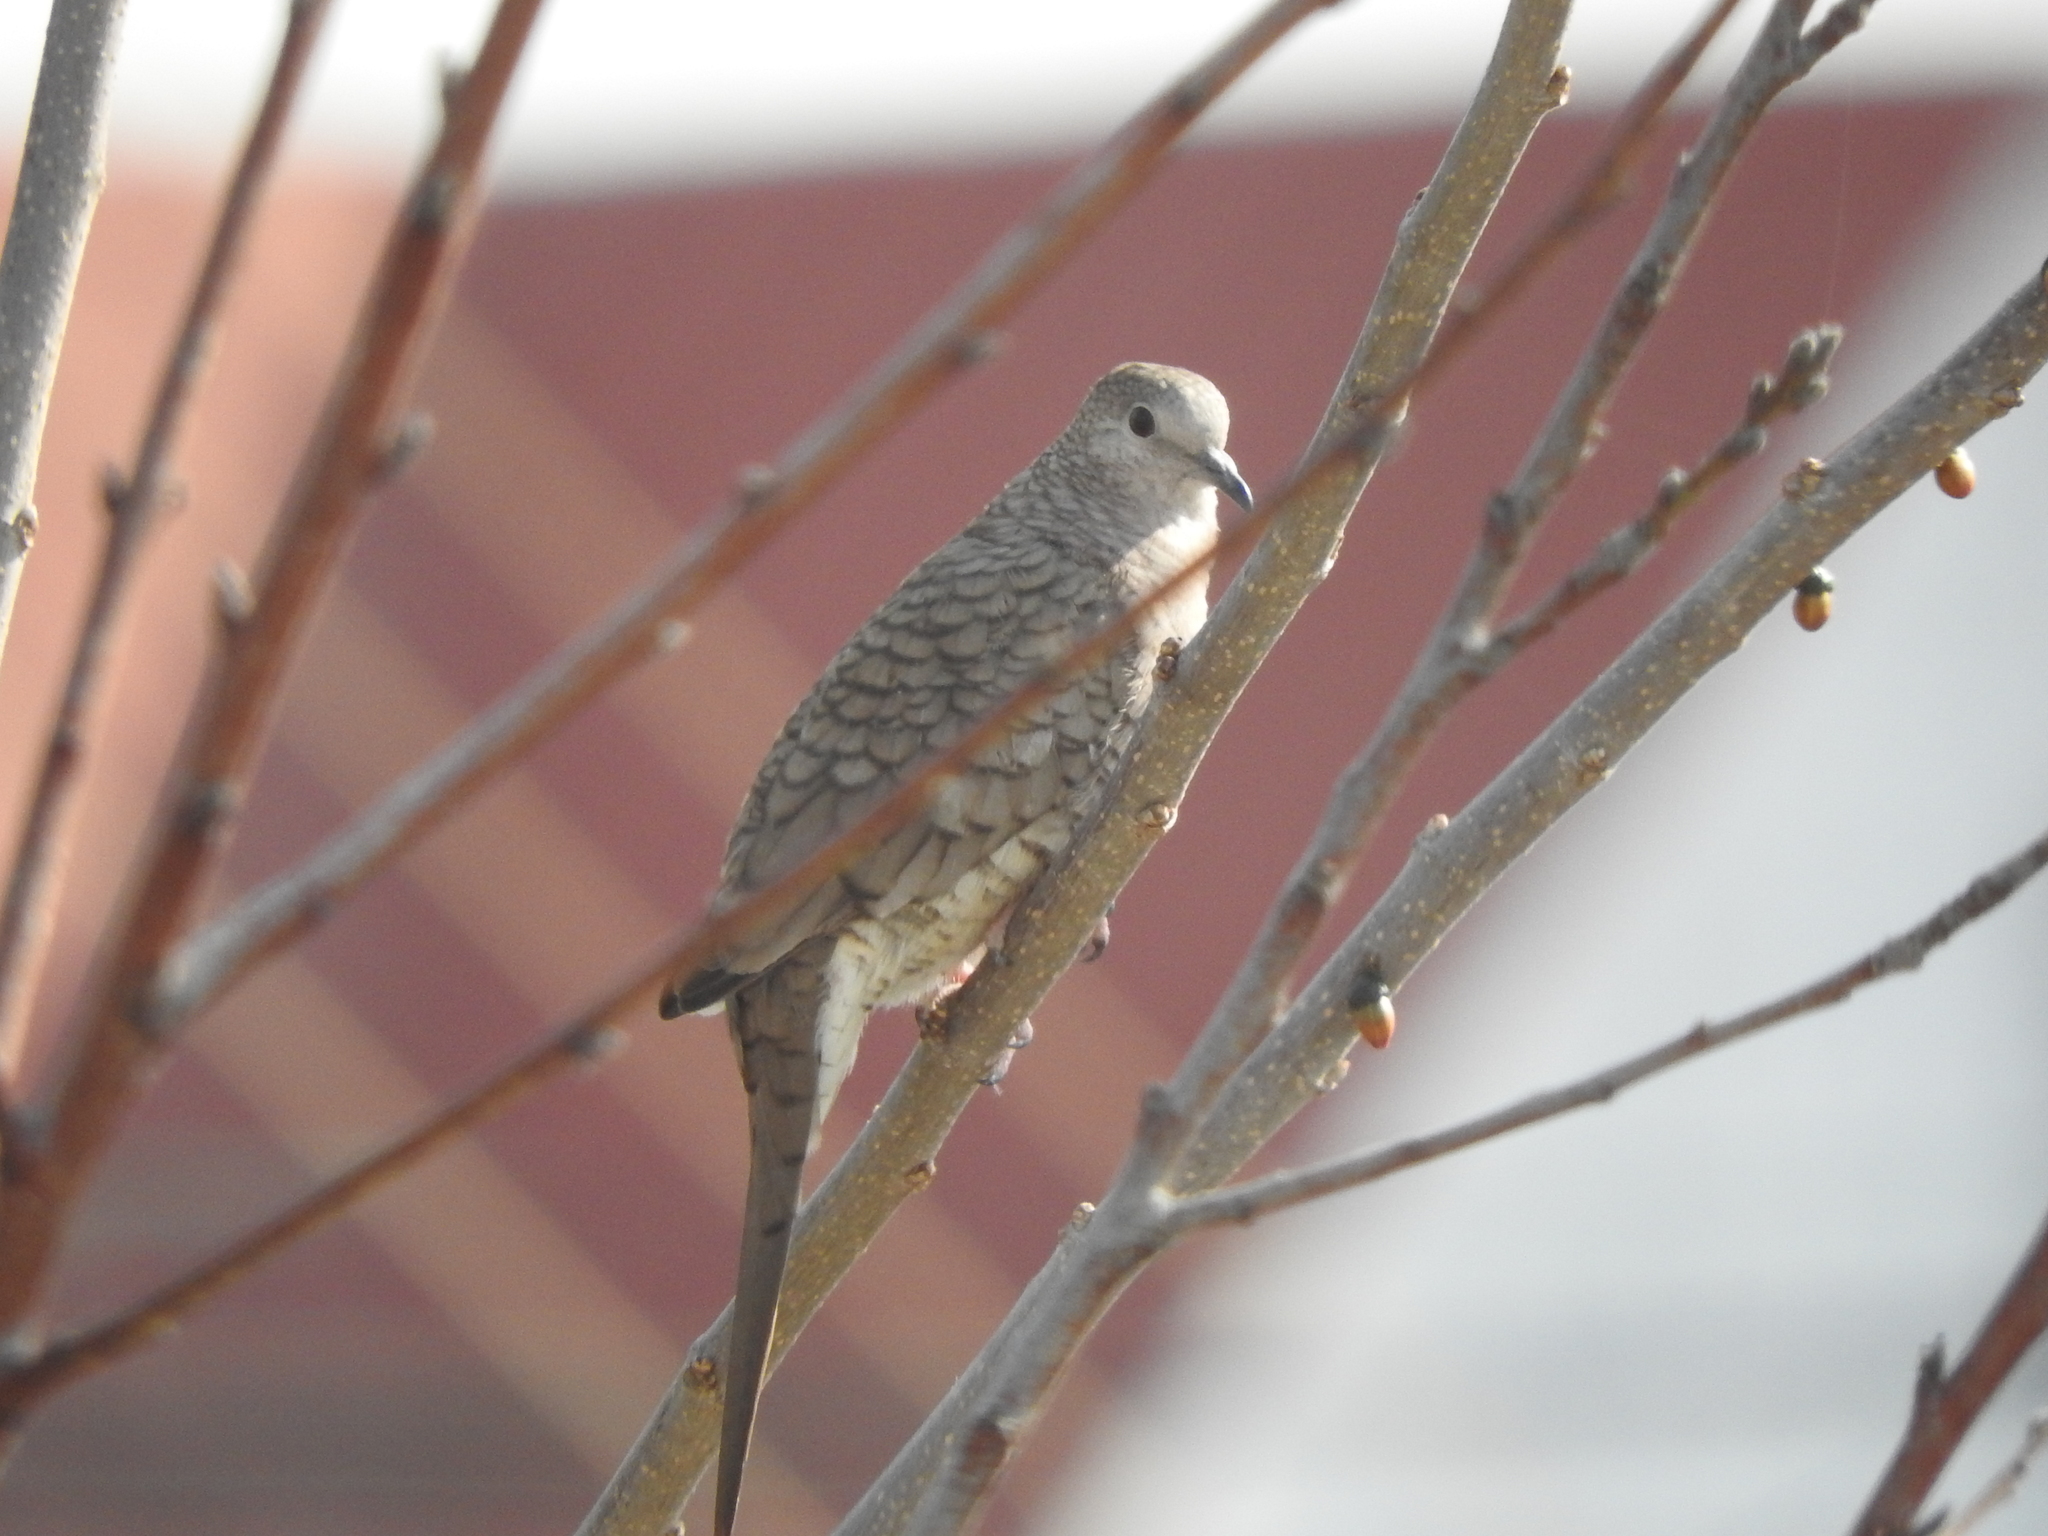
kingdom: Animalia
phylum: Chordata
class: Aves
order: Columbiformes
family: Columbidae
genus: Columbina
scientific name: Columbina inca
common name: Inca dove
